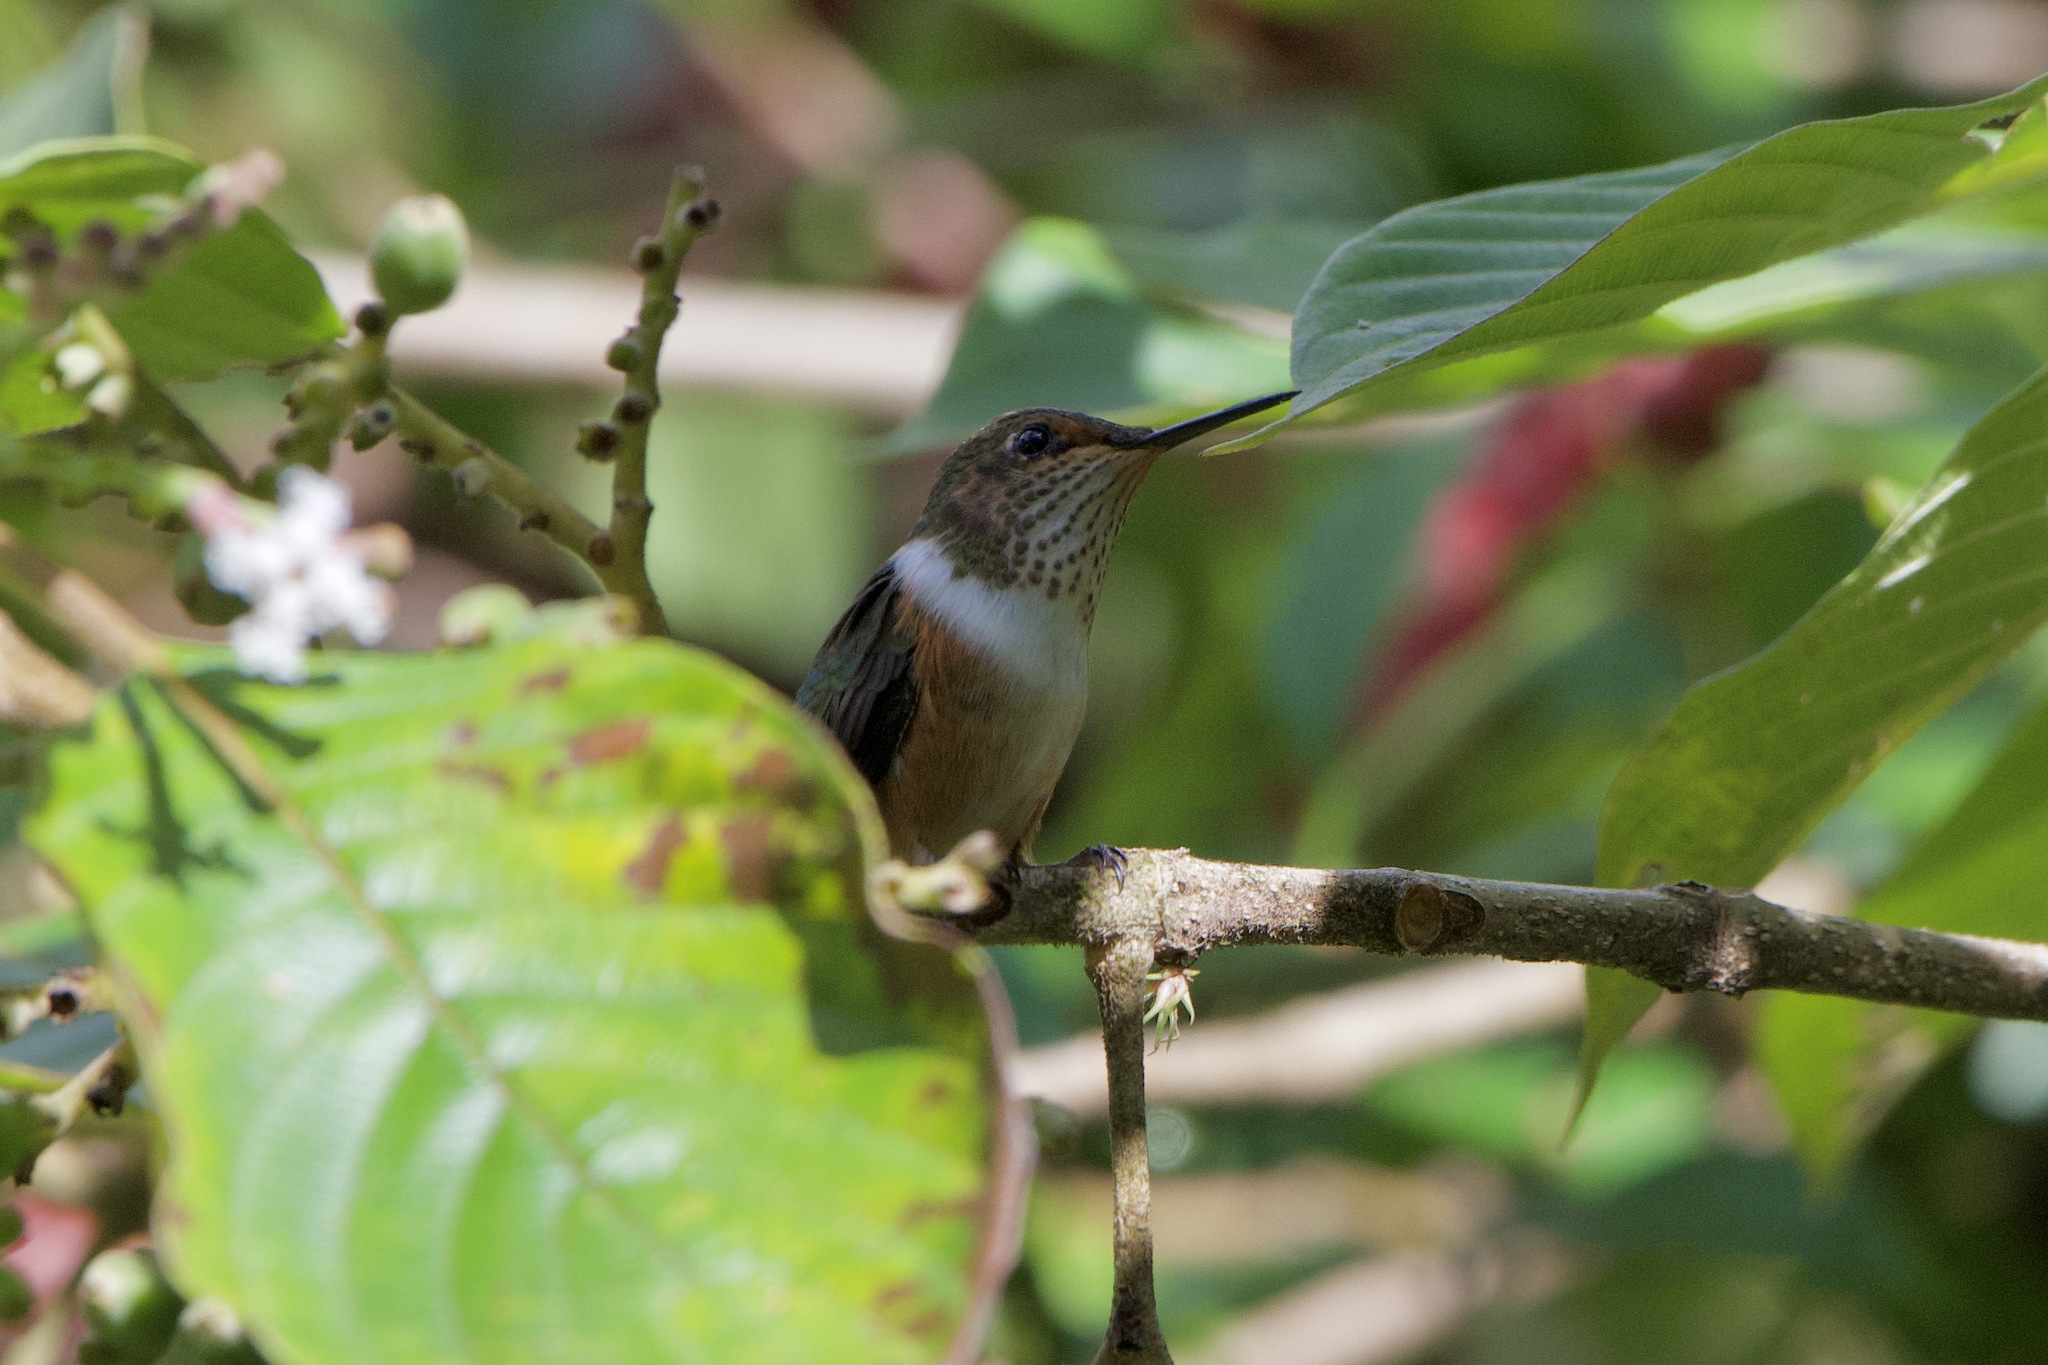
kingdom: Animalia
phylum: Chordata
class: Aves
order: Apodiformes
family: Trochilidae
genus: Selasphorus
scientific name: Selasphorus scintilla
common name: Scintillant hummingbird
